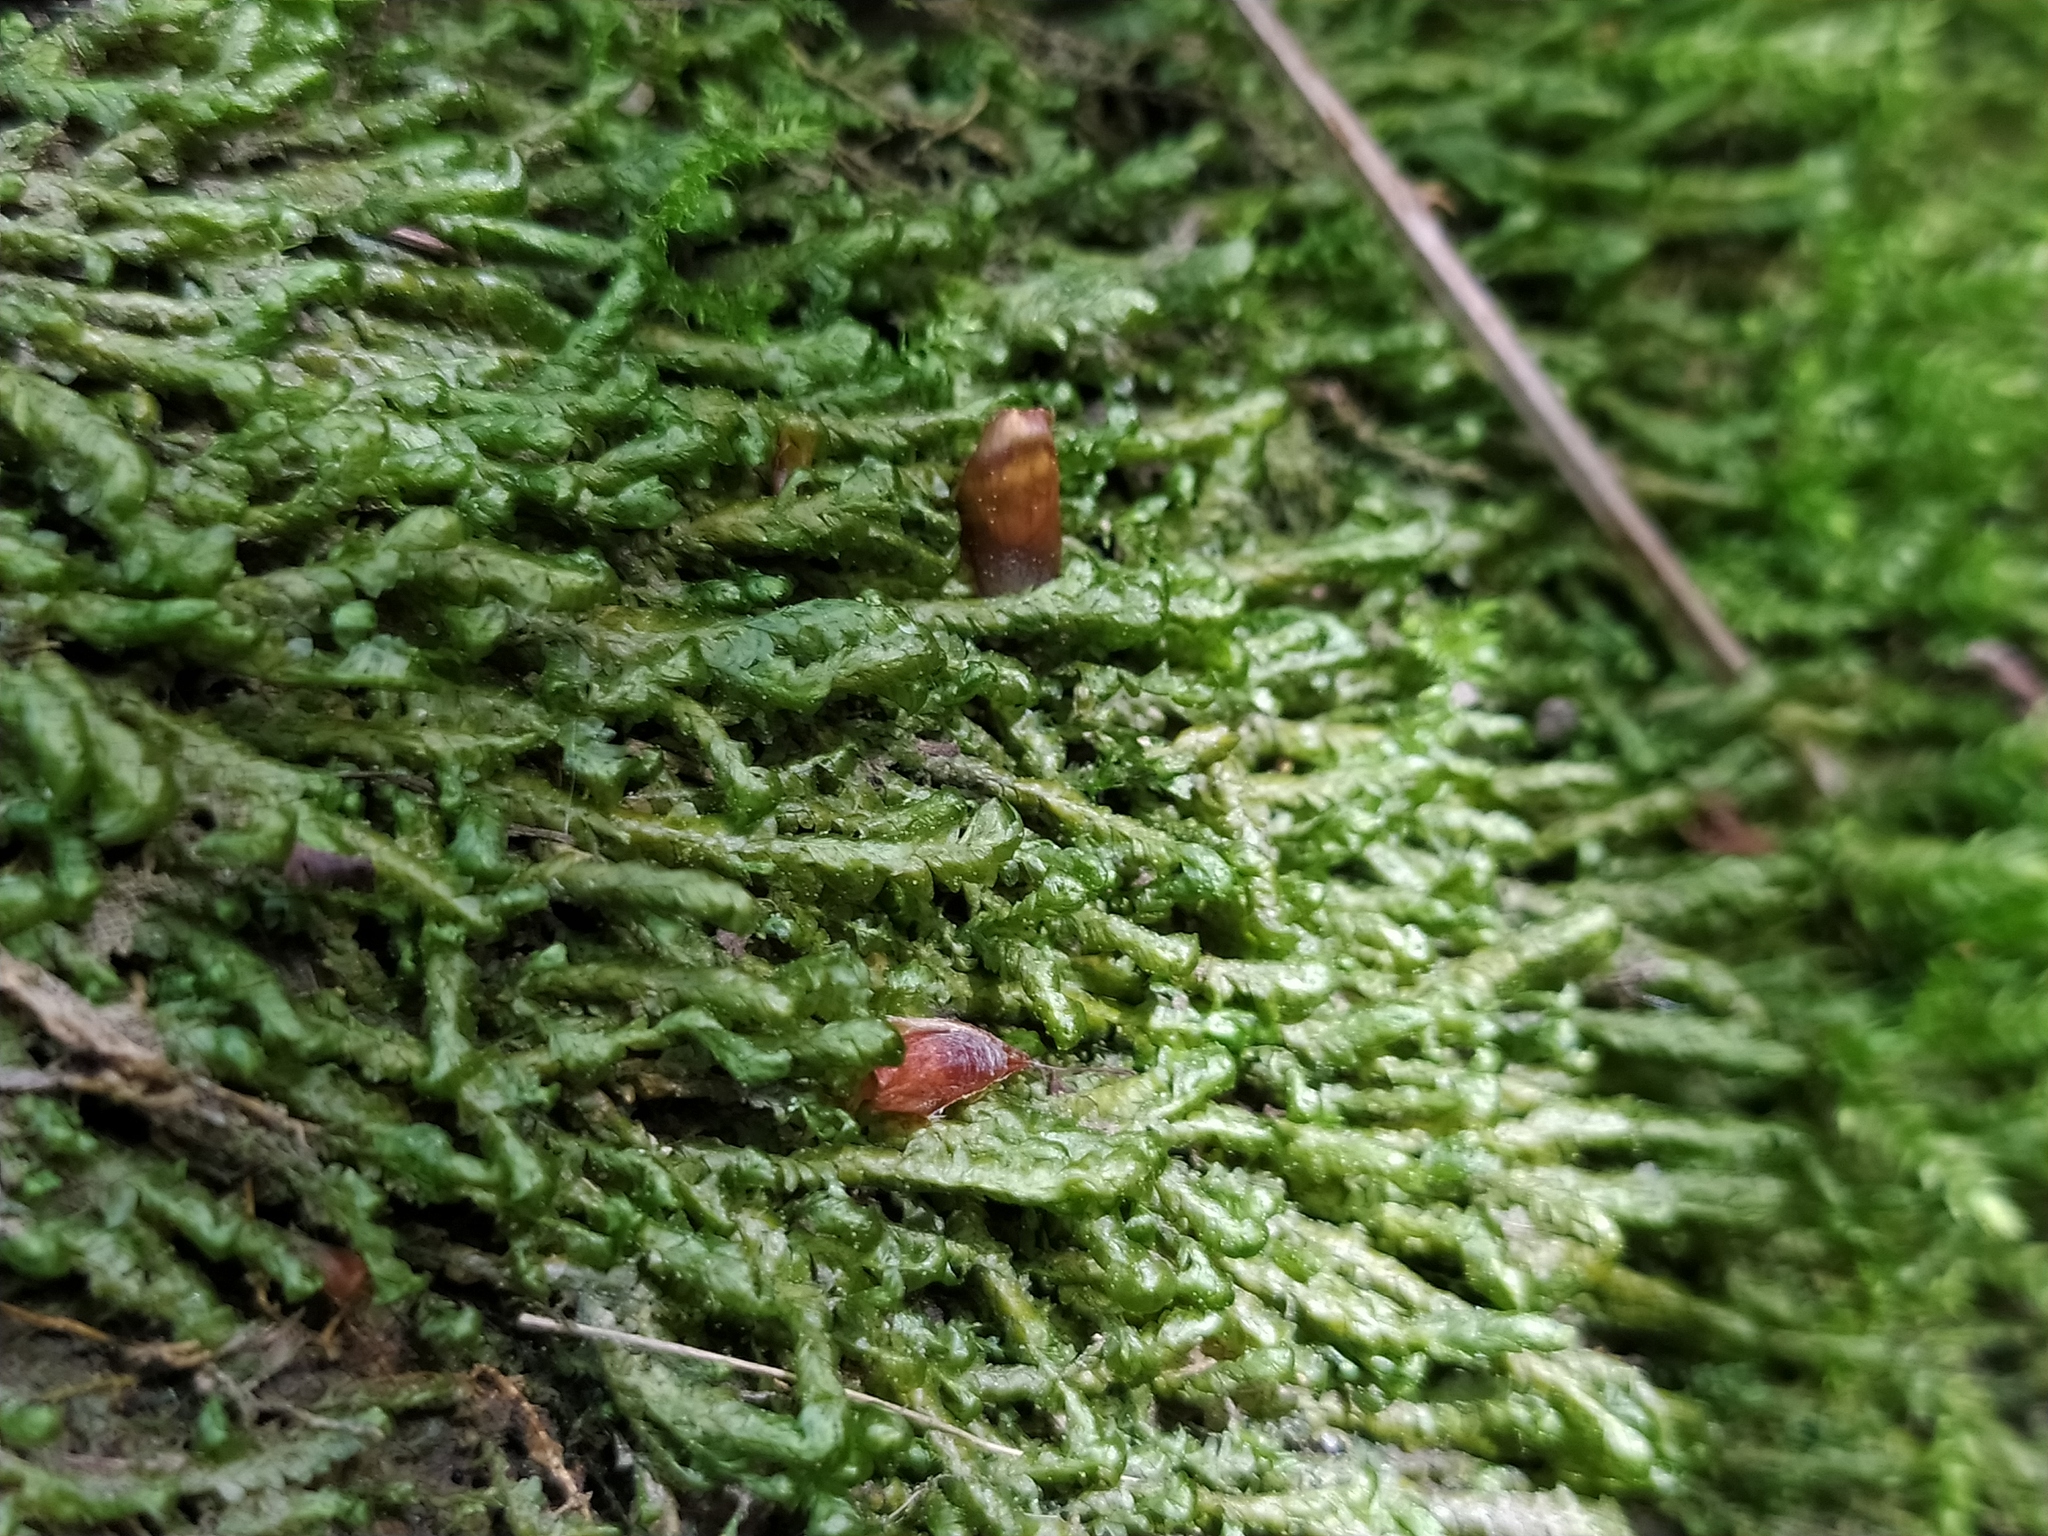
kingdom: Plantae
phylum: Bryophyta
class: Bryopsida
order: Hypnales
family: Neckeraceae
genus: Homalia
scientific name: Homalia trichomanoides
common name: Lime homalia moss
